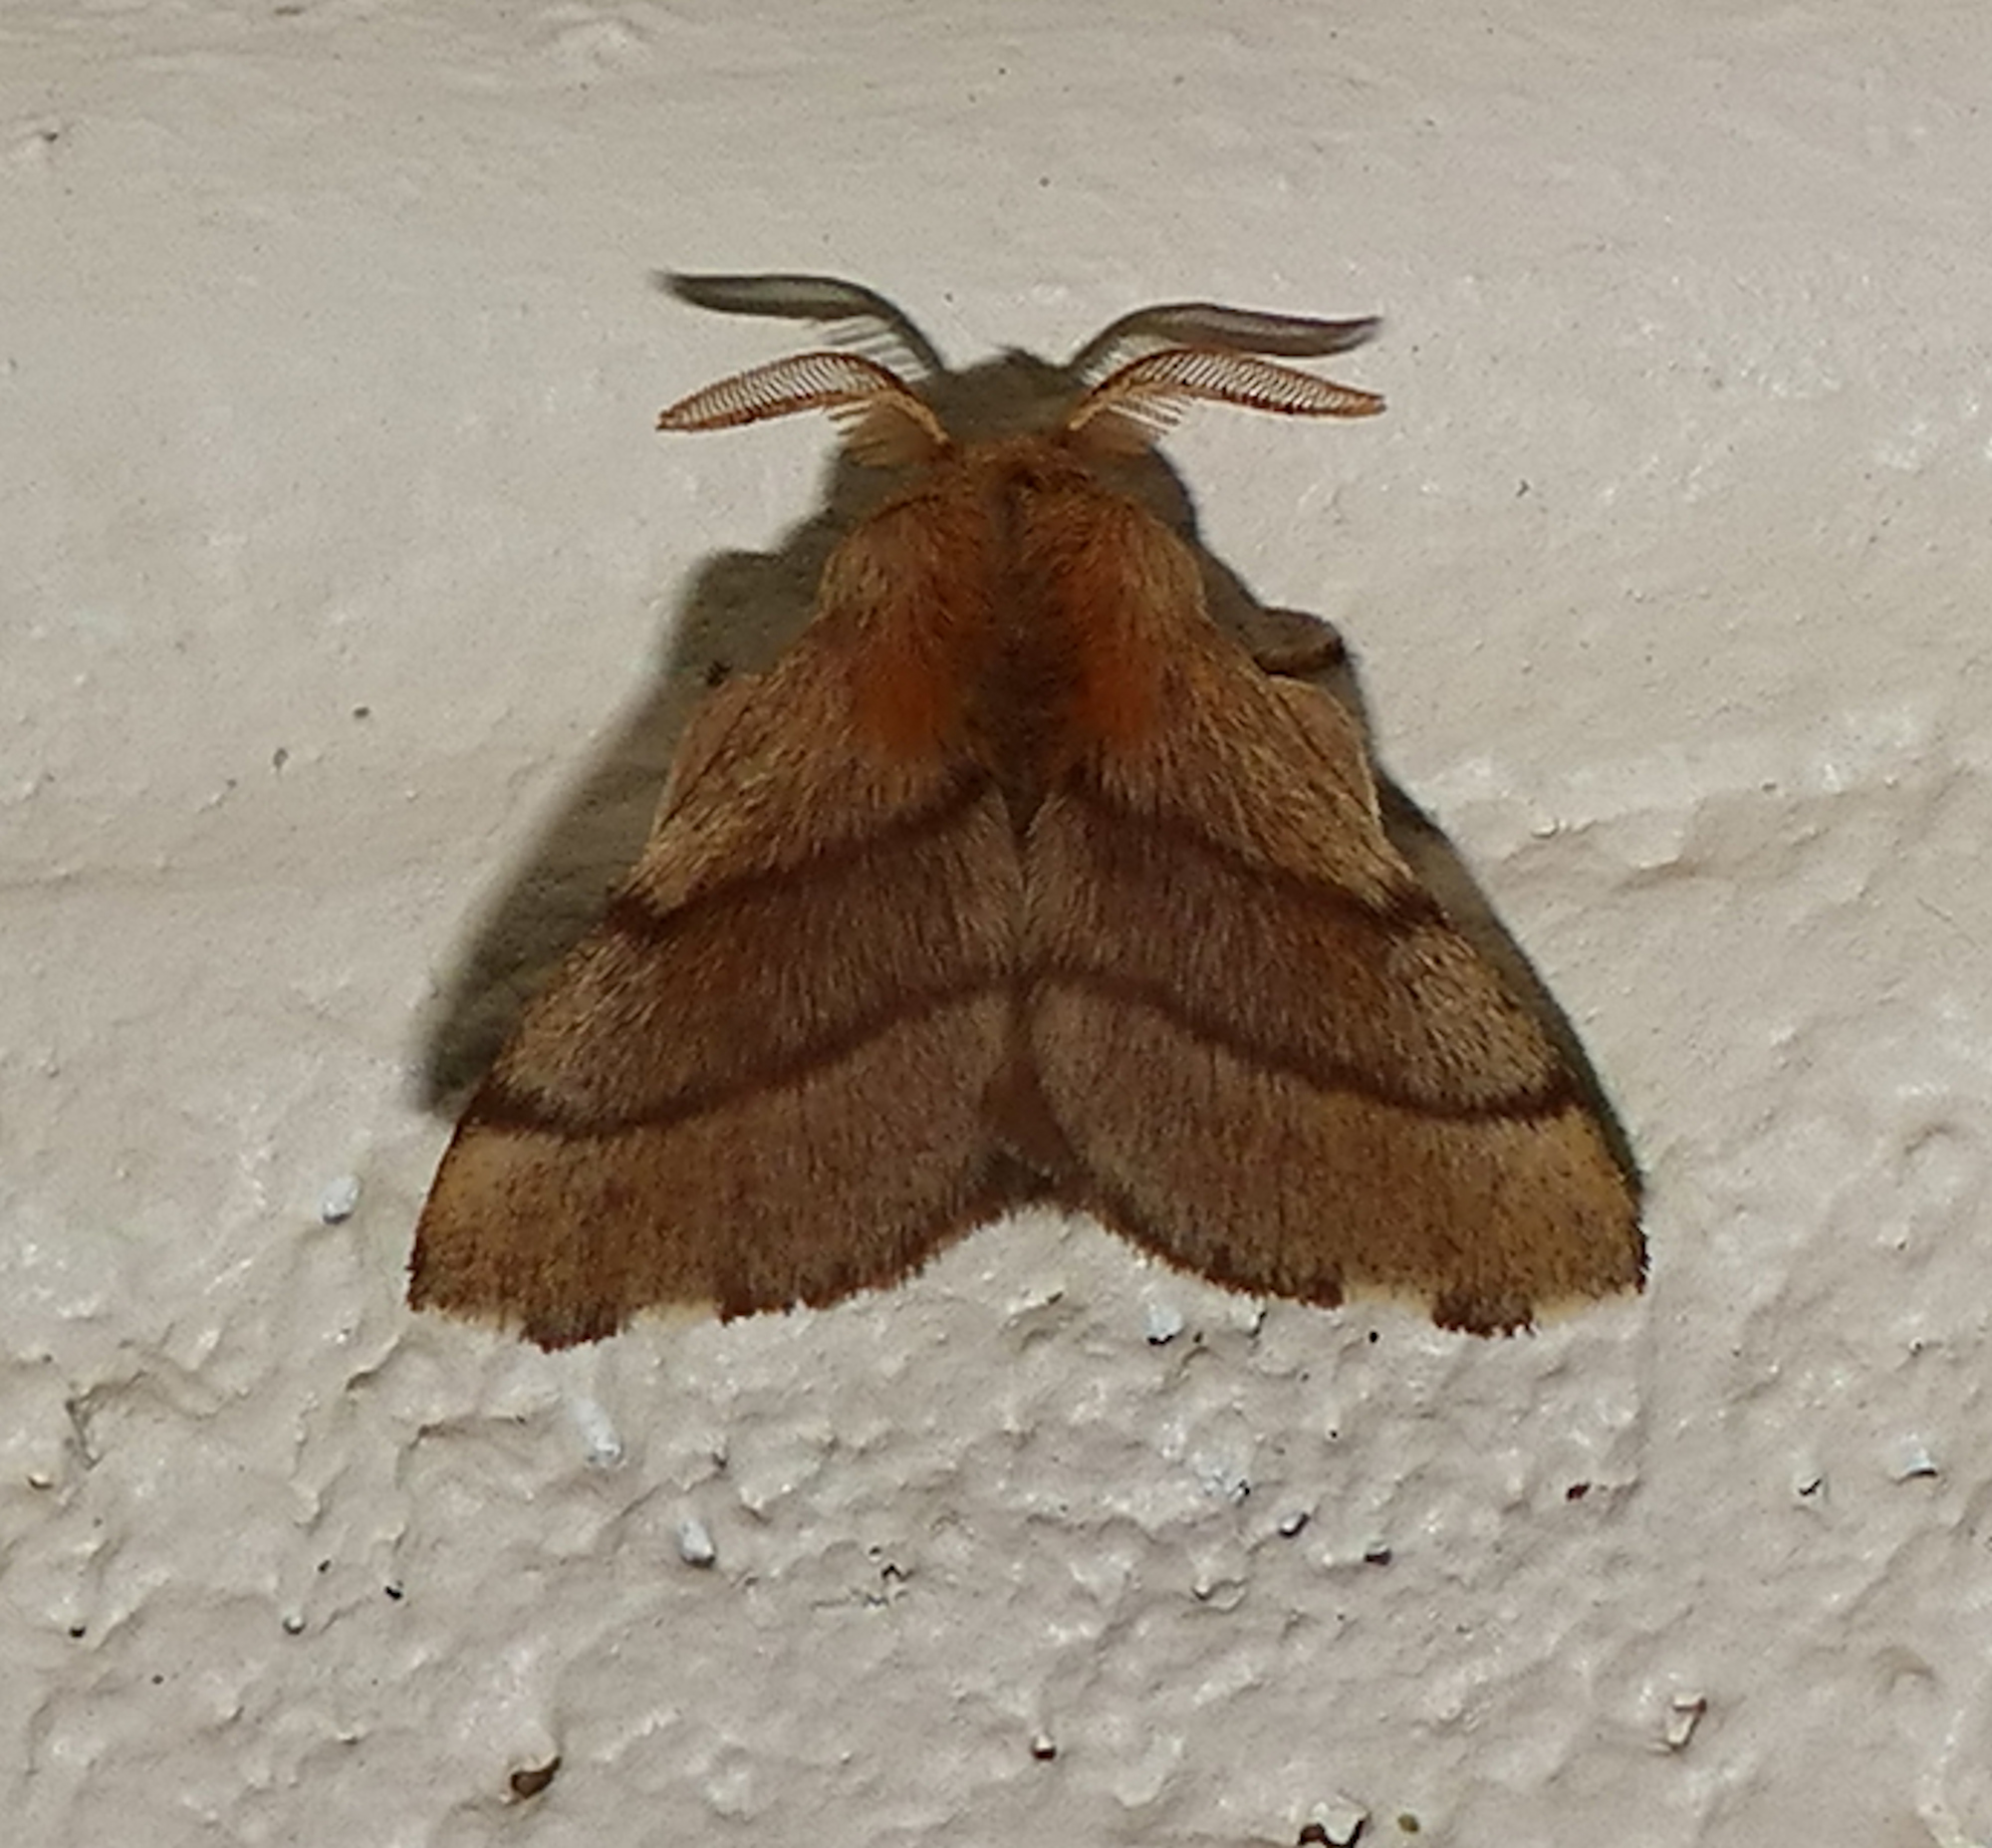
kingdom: Animalia
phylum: Arthropoda
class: Insecta
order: Lepidoptera
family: Lasiocampidae
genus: Malacosoma
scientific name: Malacosoma disstria
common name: Forest tent caterpillar
